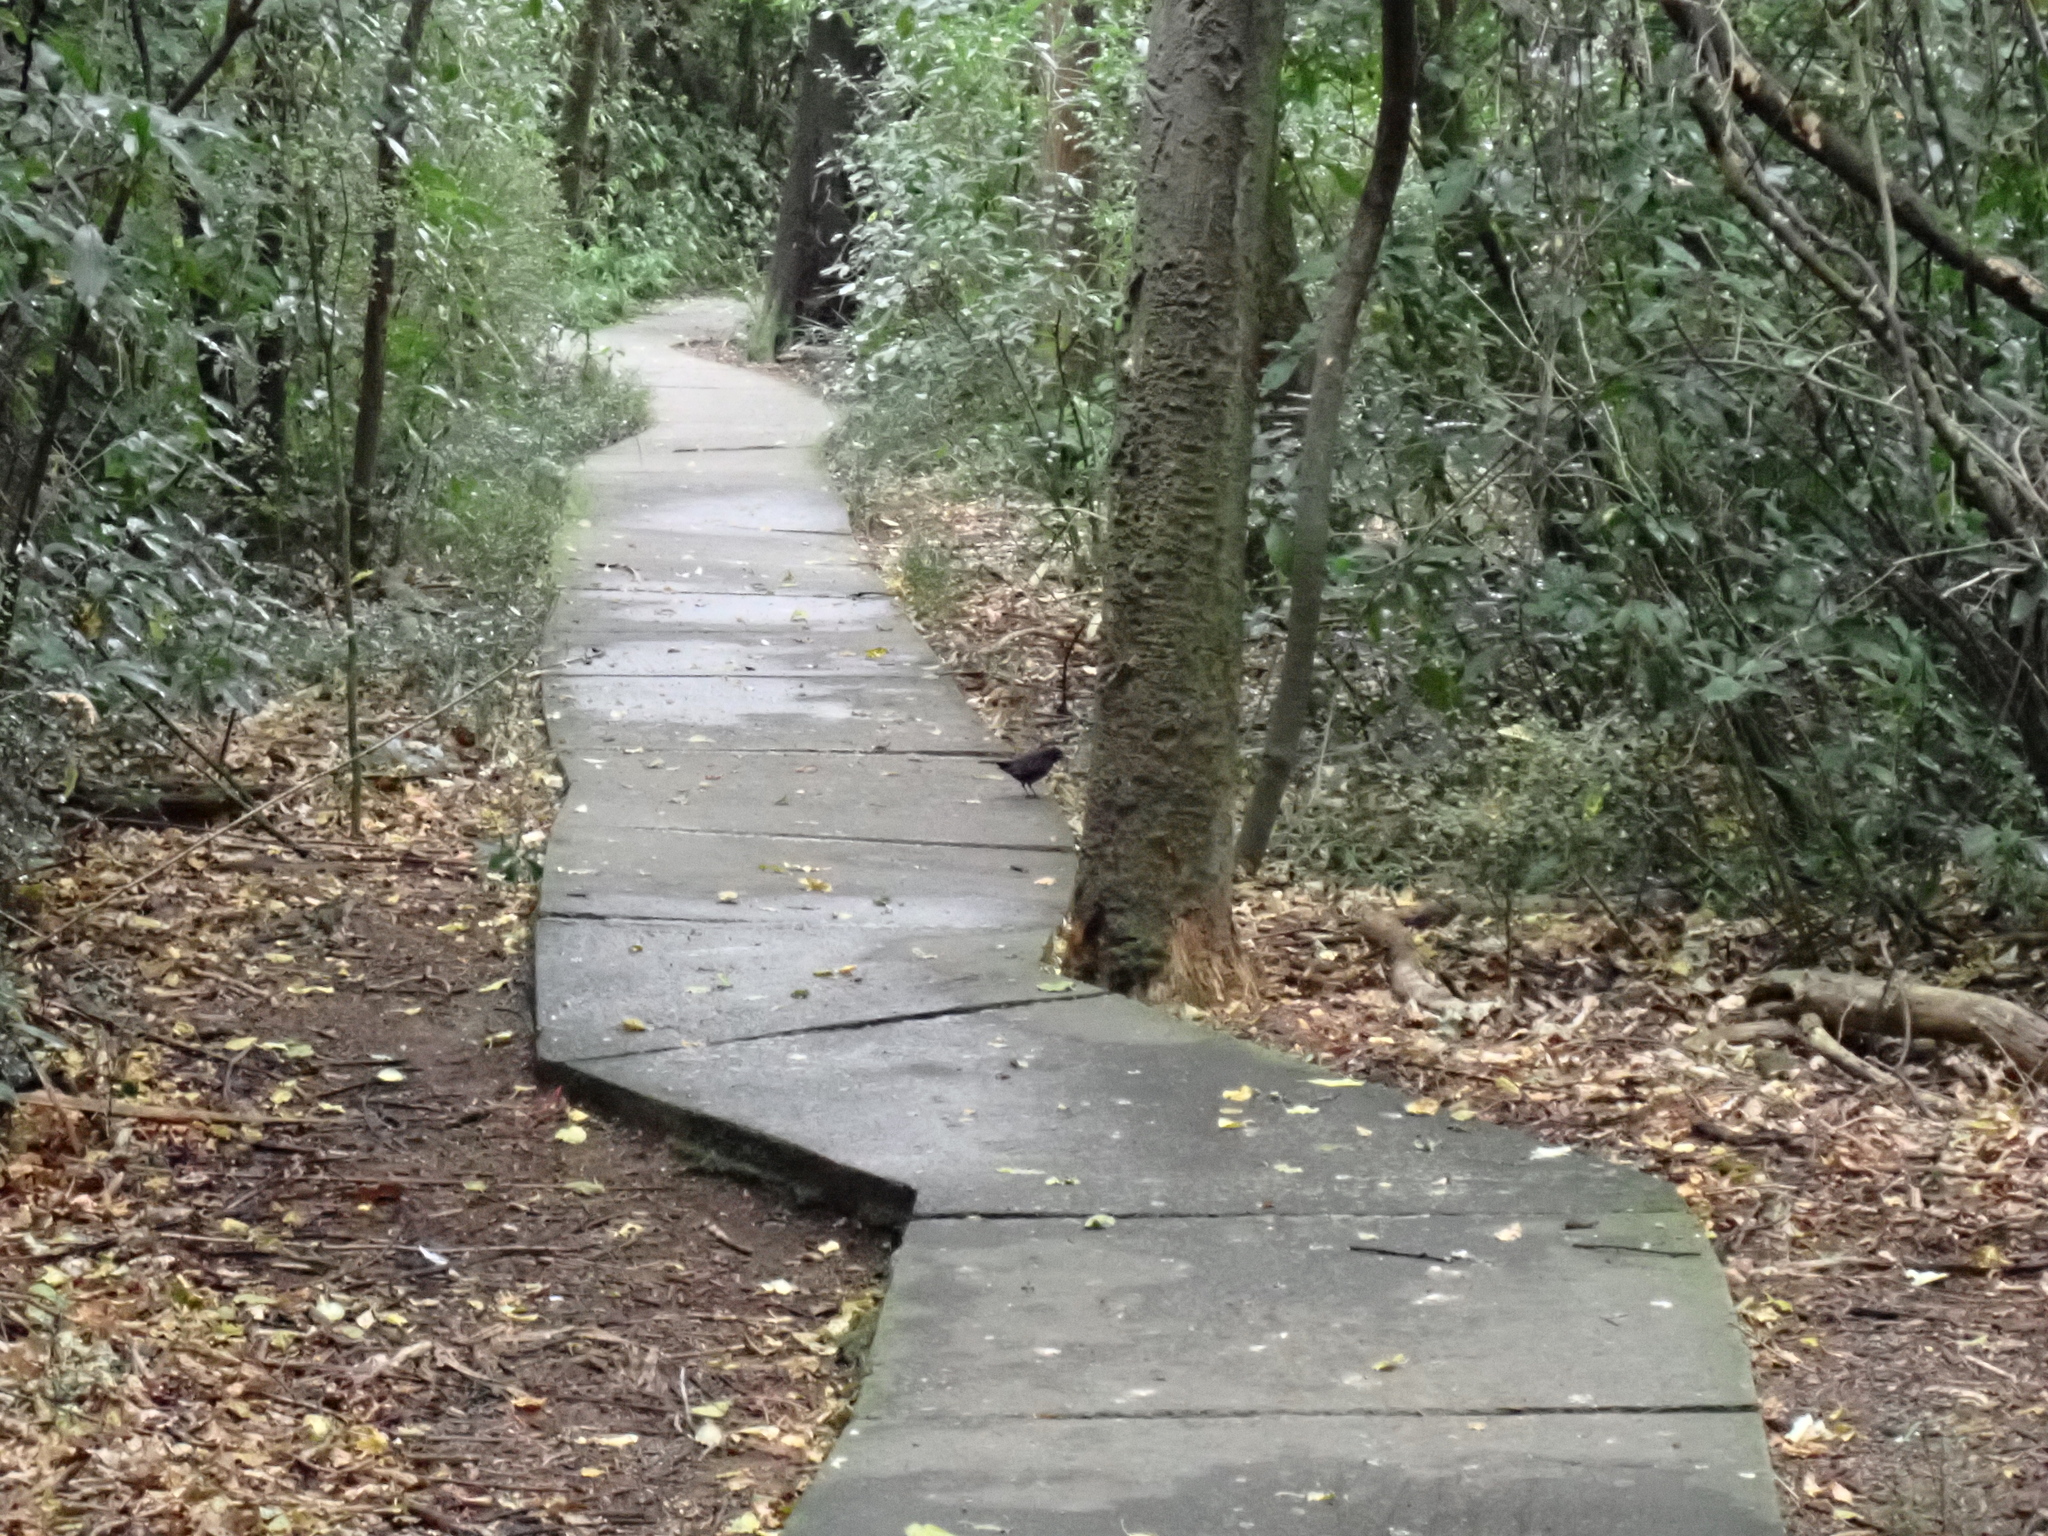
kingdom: Animalia
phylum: Chordata
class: Aves
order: Passeriformes
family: Turdidae
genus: Turdus
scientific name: Turdus merula
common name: Common blackbird
